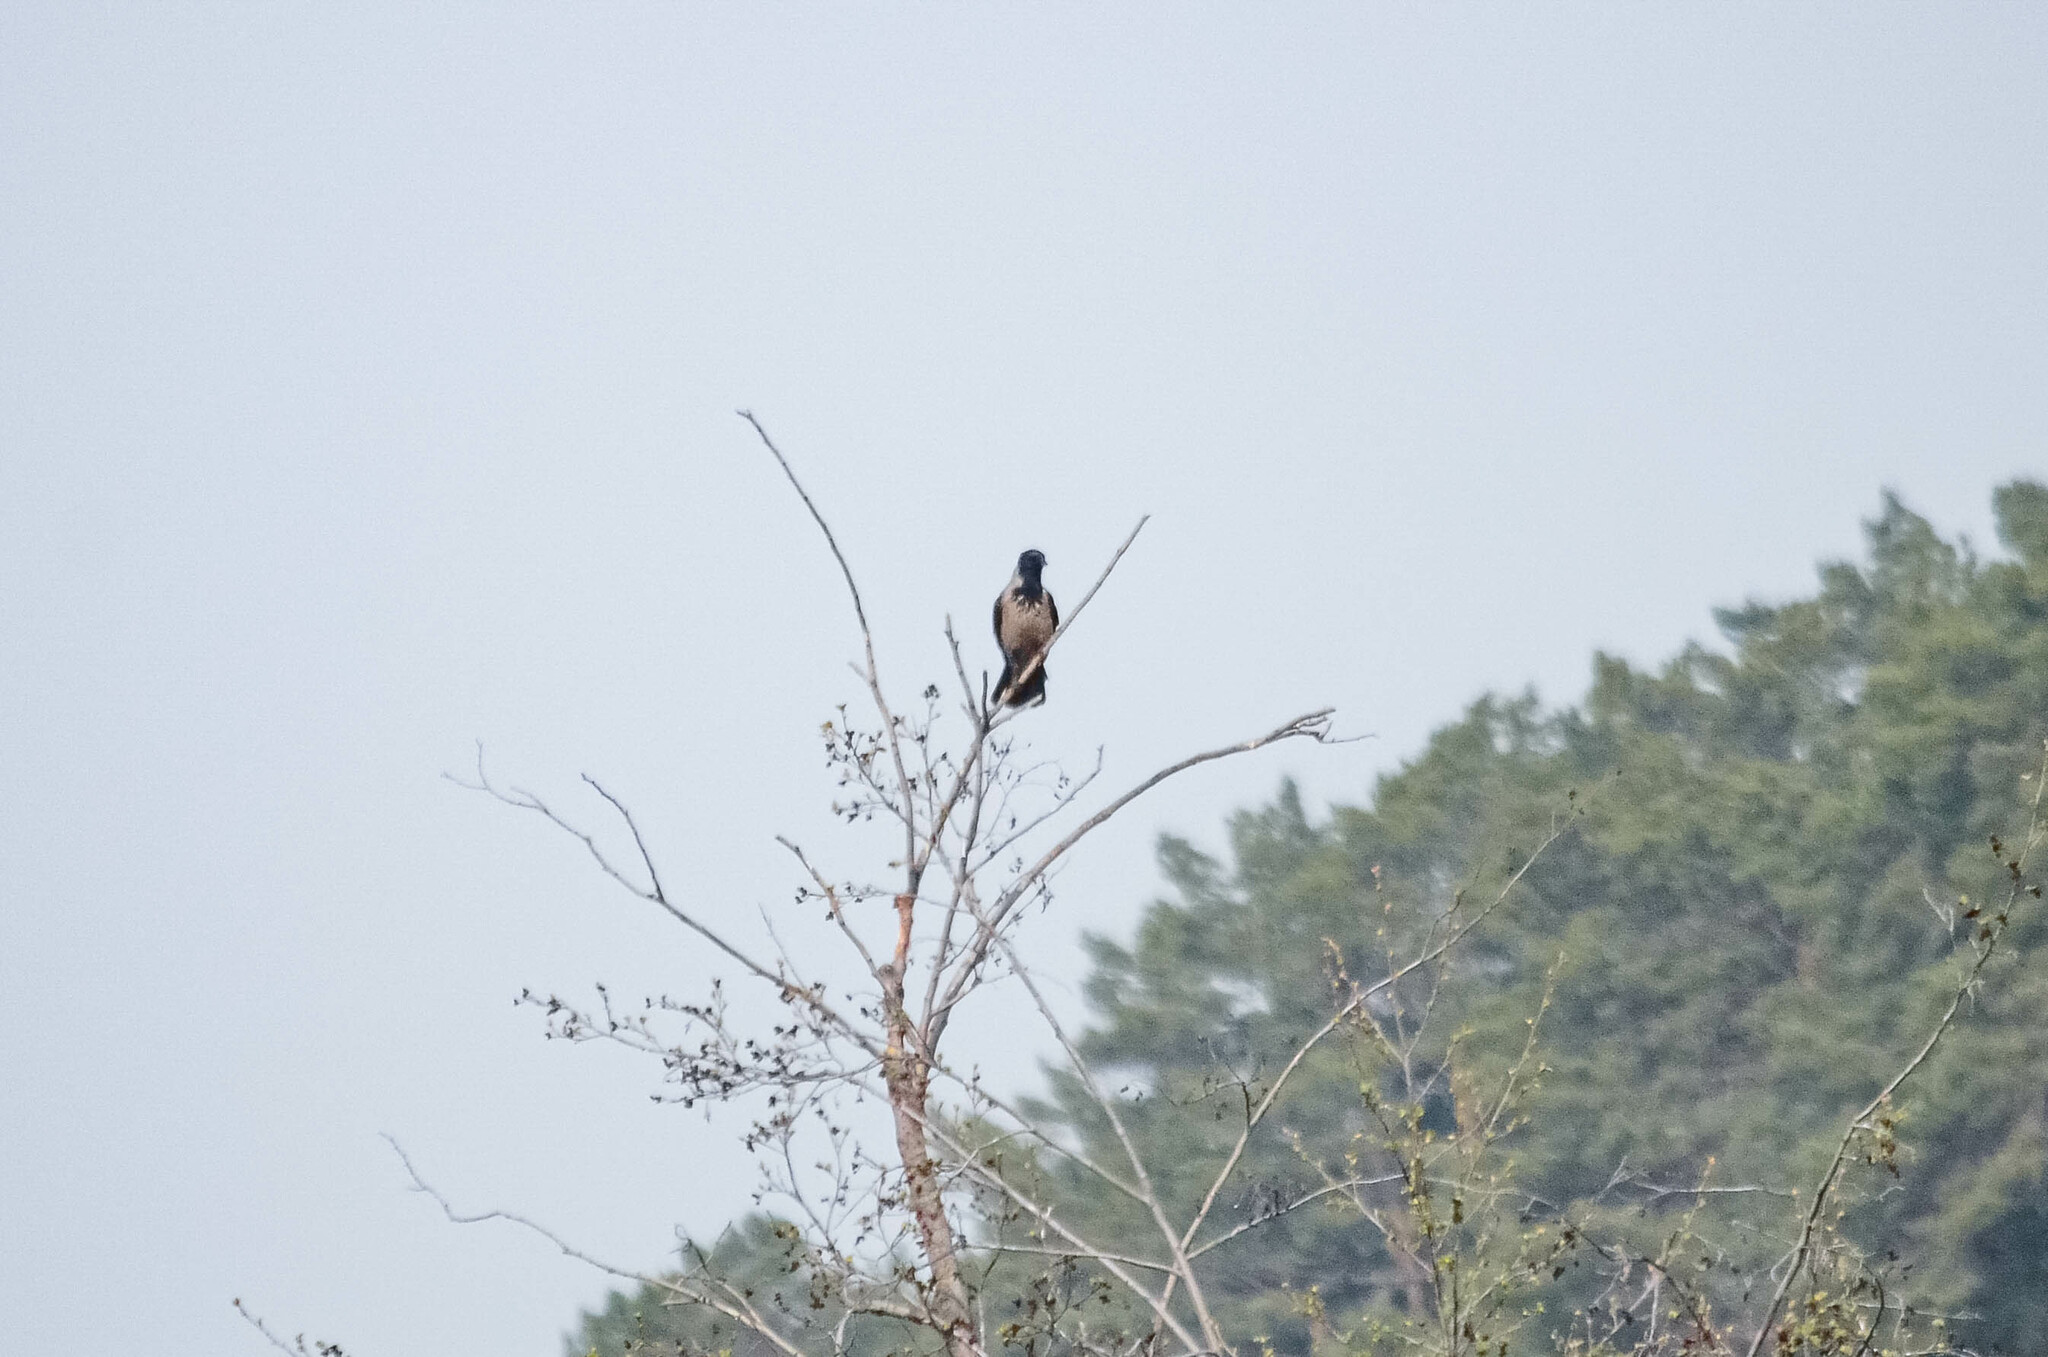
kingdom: Animalia
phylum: Chordata
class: Aves
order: Passeriformes
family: Corvidae
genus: Corvus
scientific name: Corvus cornix
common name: Hooded crow
